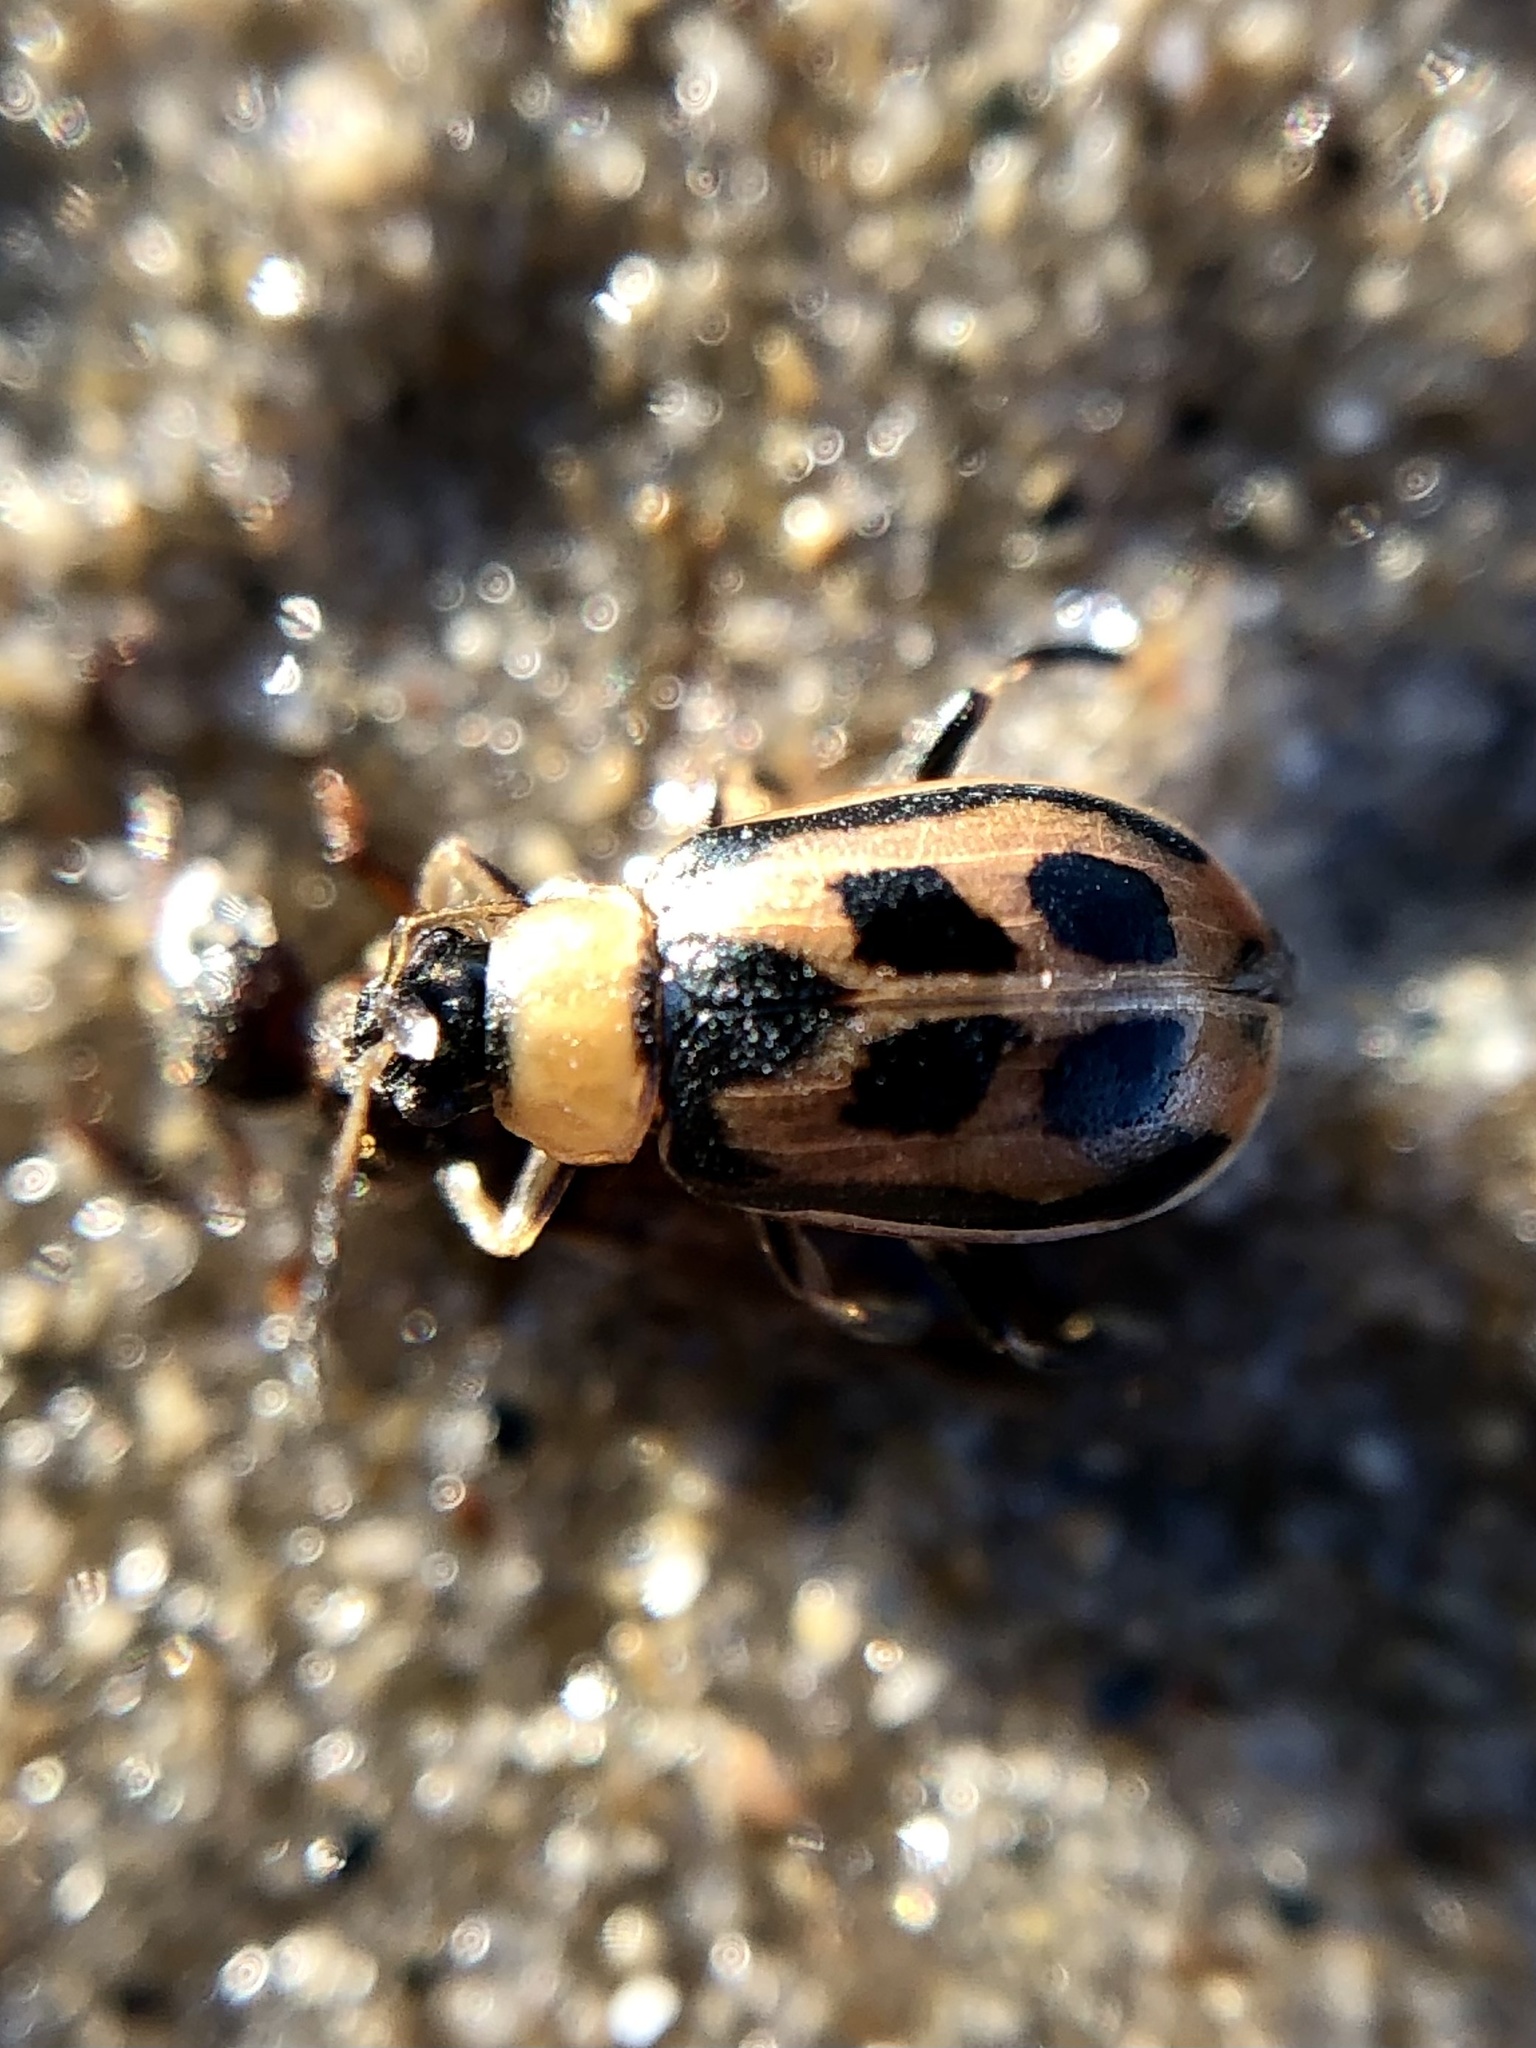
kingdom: Animalia
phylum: Arthropoda
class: Insecta
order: Coleoptera
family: Chrysomelidae
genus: Cerotoma
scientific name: Cerotoma trifurcata
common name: Bean leaf beetle
